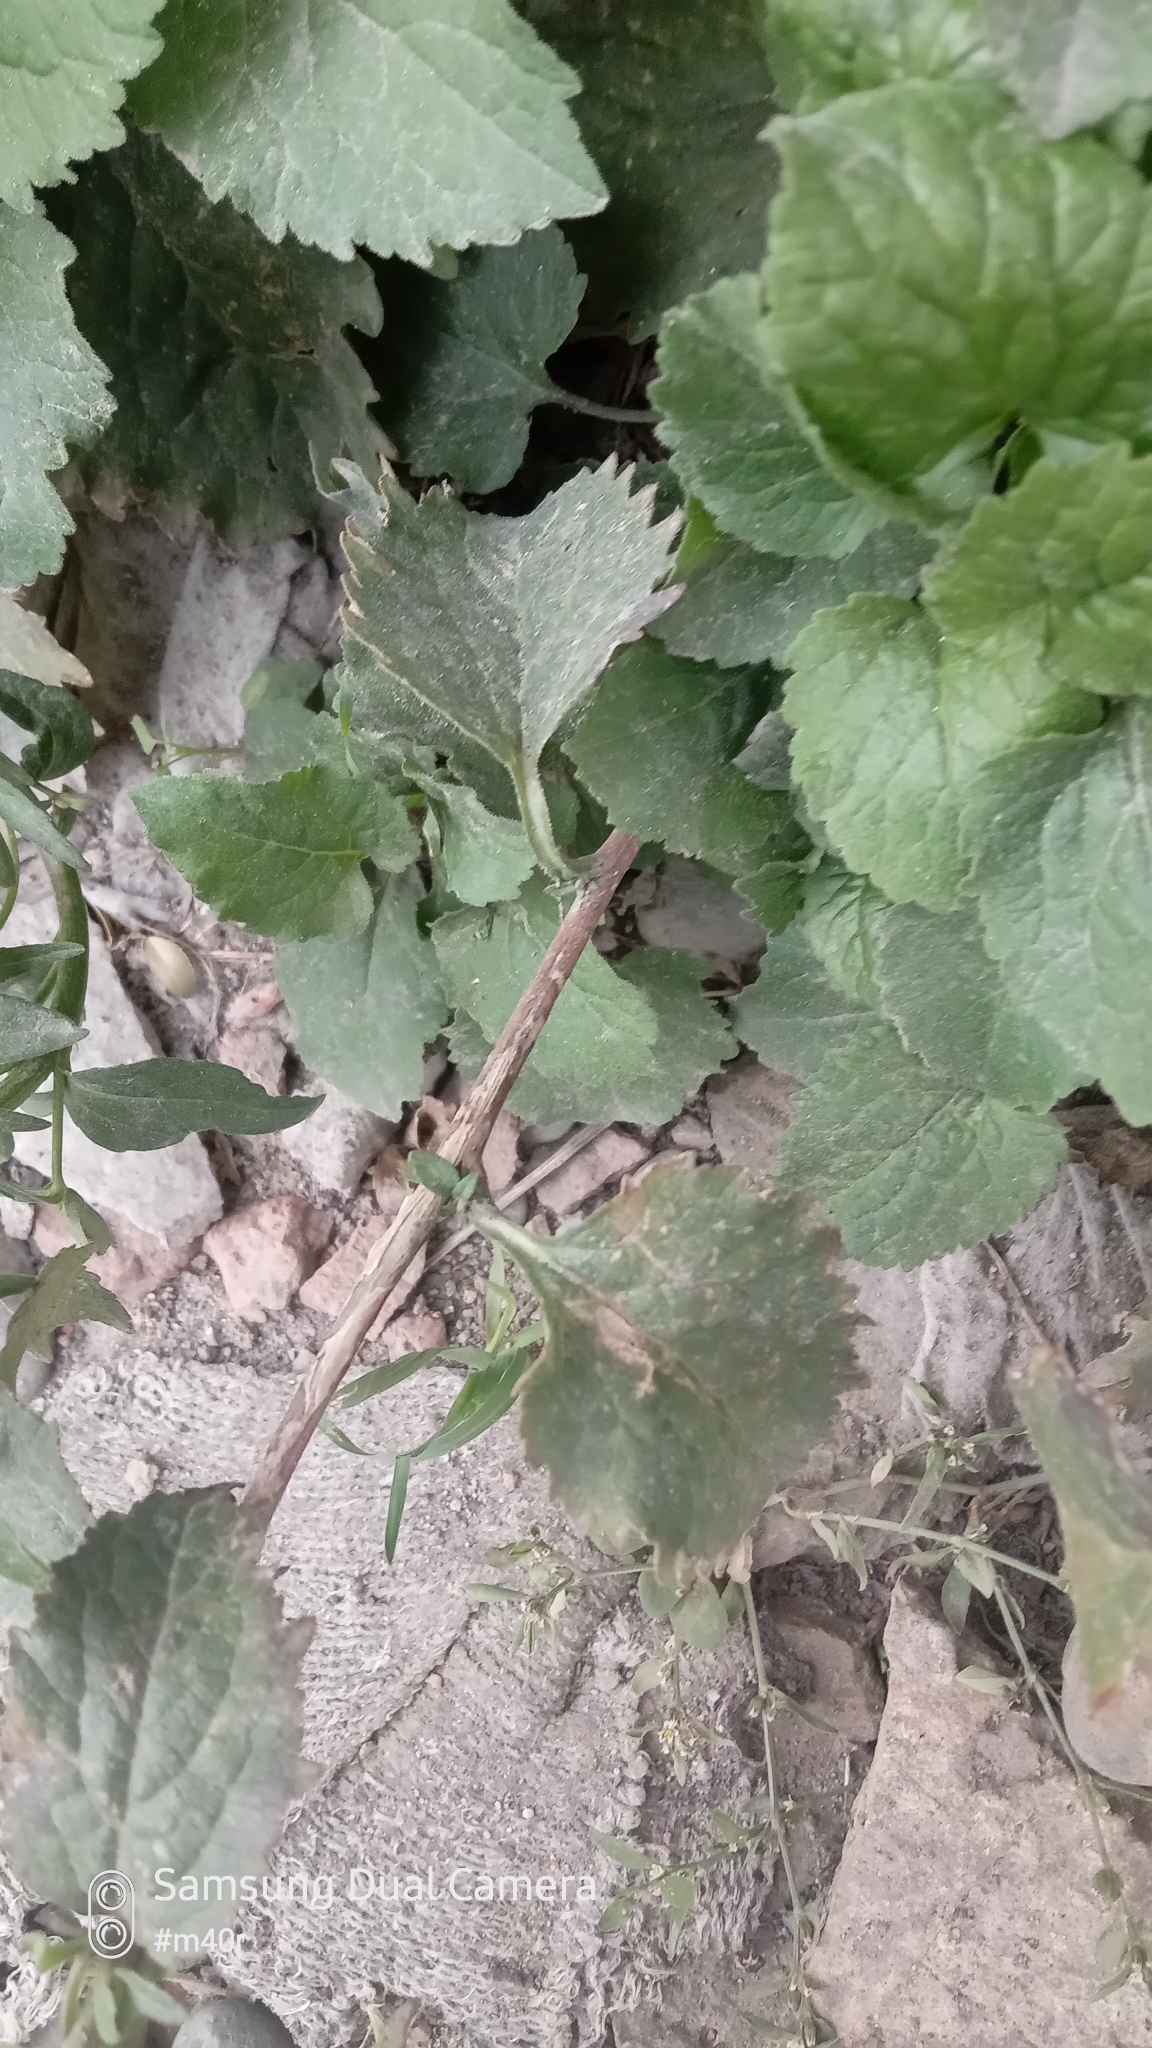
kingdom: Plantae
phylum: Tracheophyta
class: Magnoliopsida
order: Asterales
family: Campanulaceae
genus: Campanula
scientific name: Campanula rapunculoides
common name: Creeping bellflower
